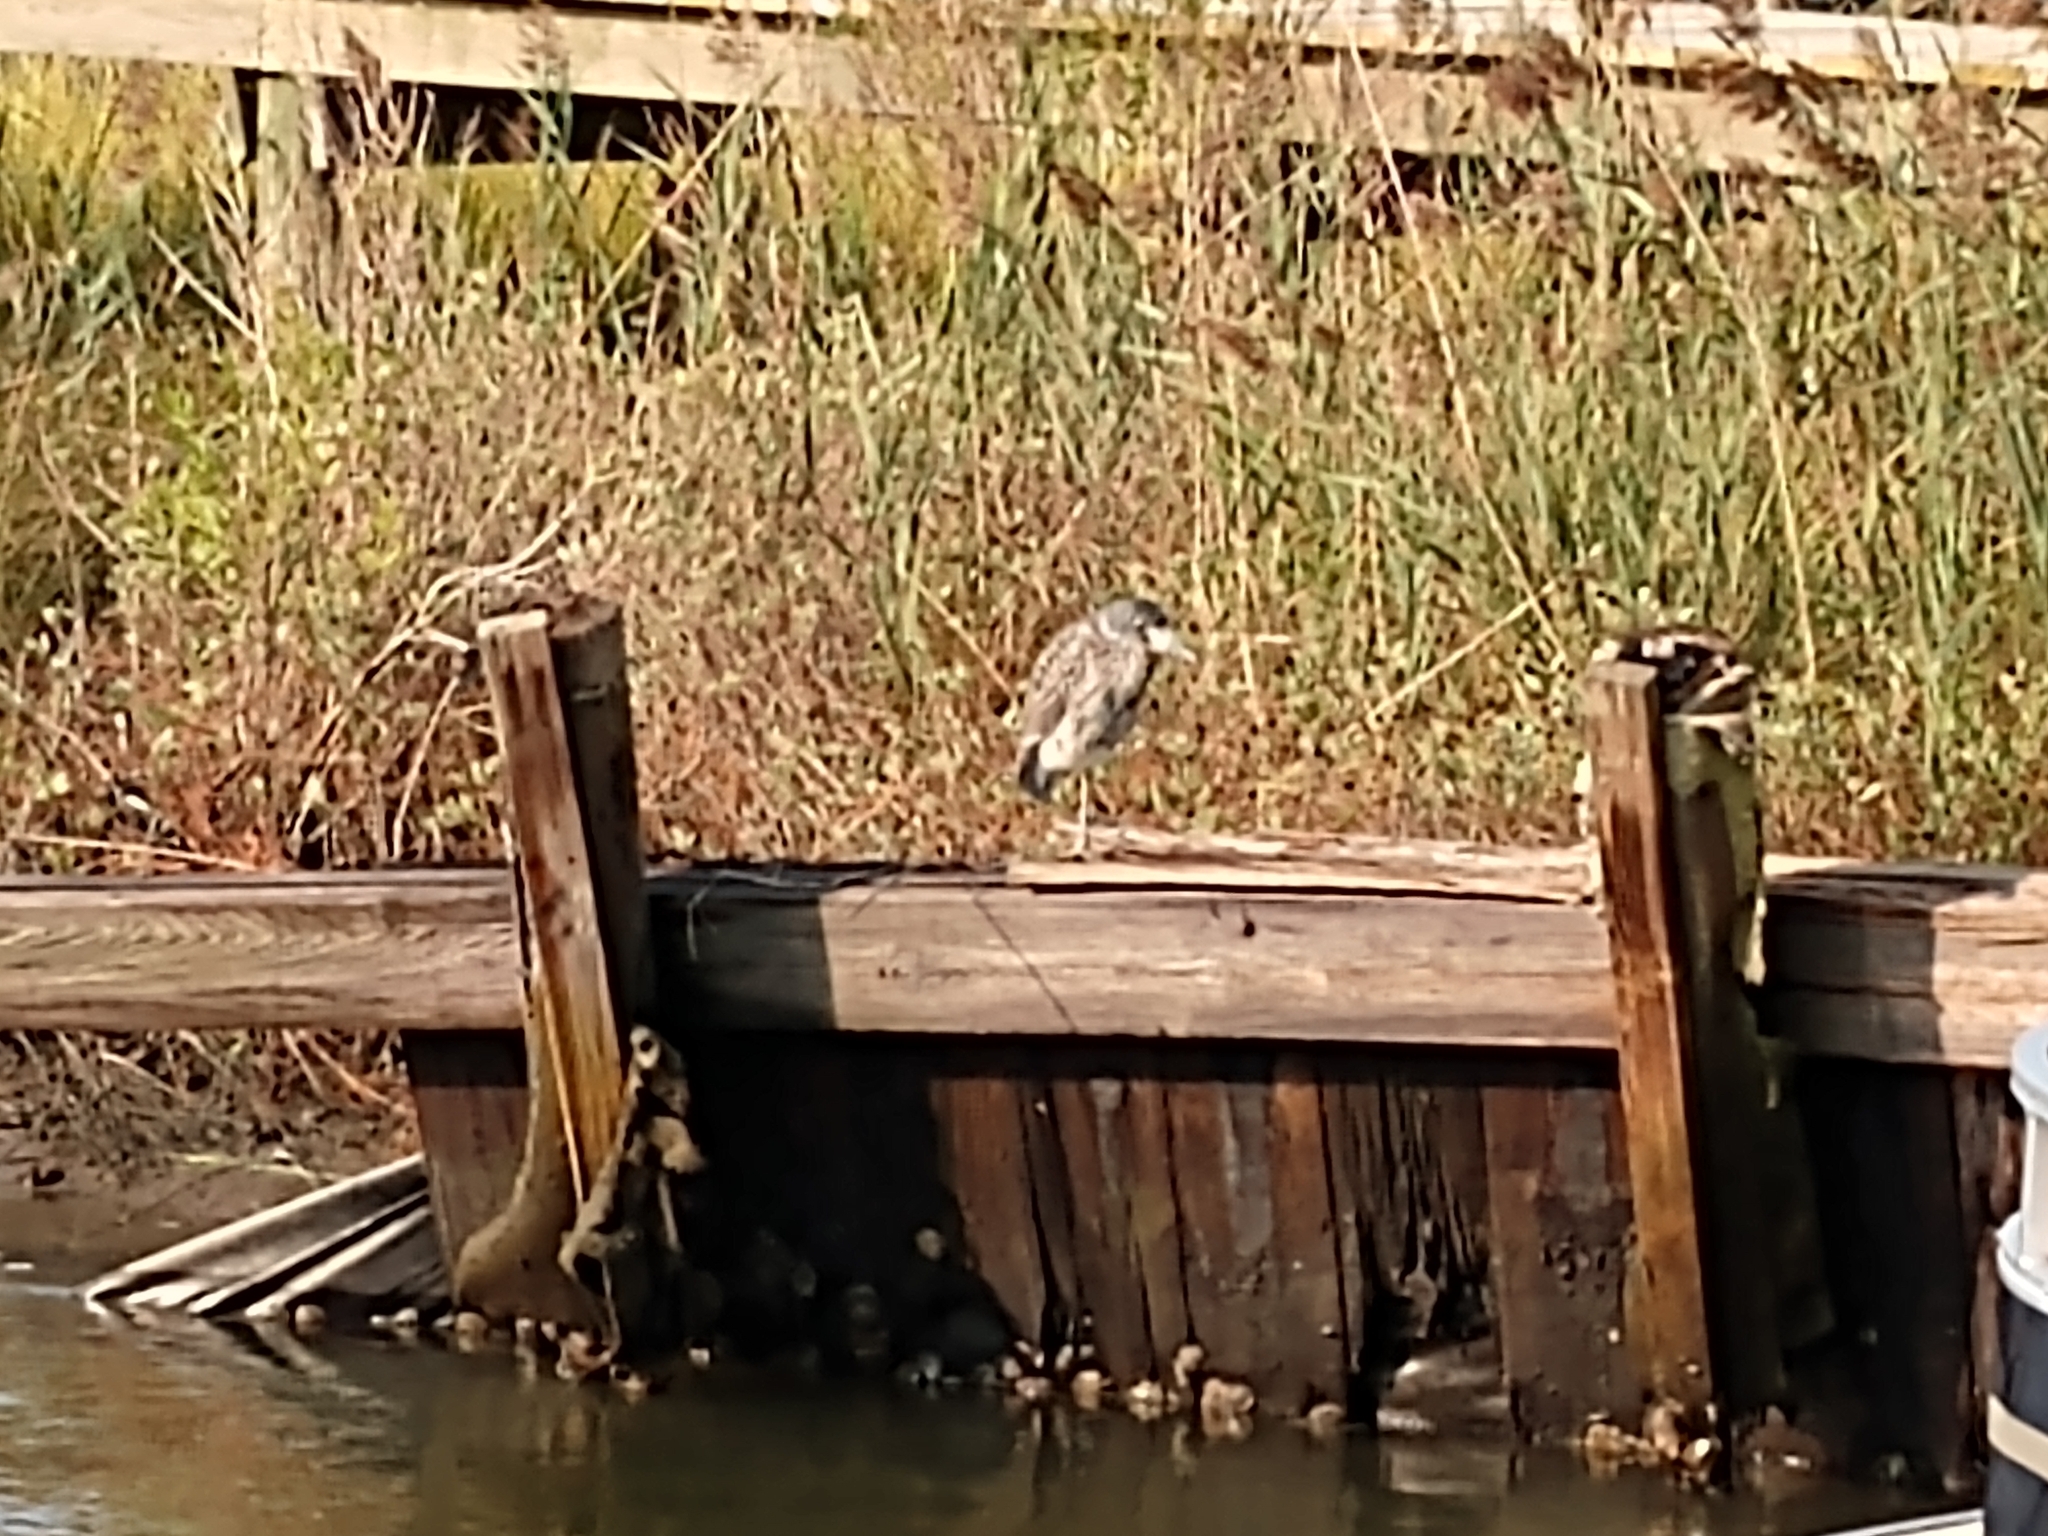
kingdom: Animalia
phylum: Chordata
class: Aves
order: Pelecaniformes
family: Ardeidae
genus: Butorides
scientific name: Butorides virescens
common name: Green heron
